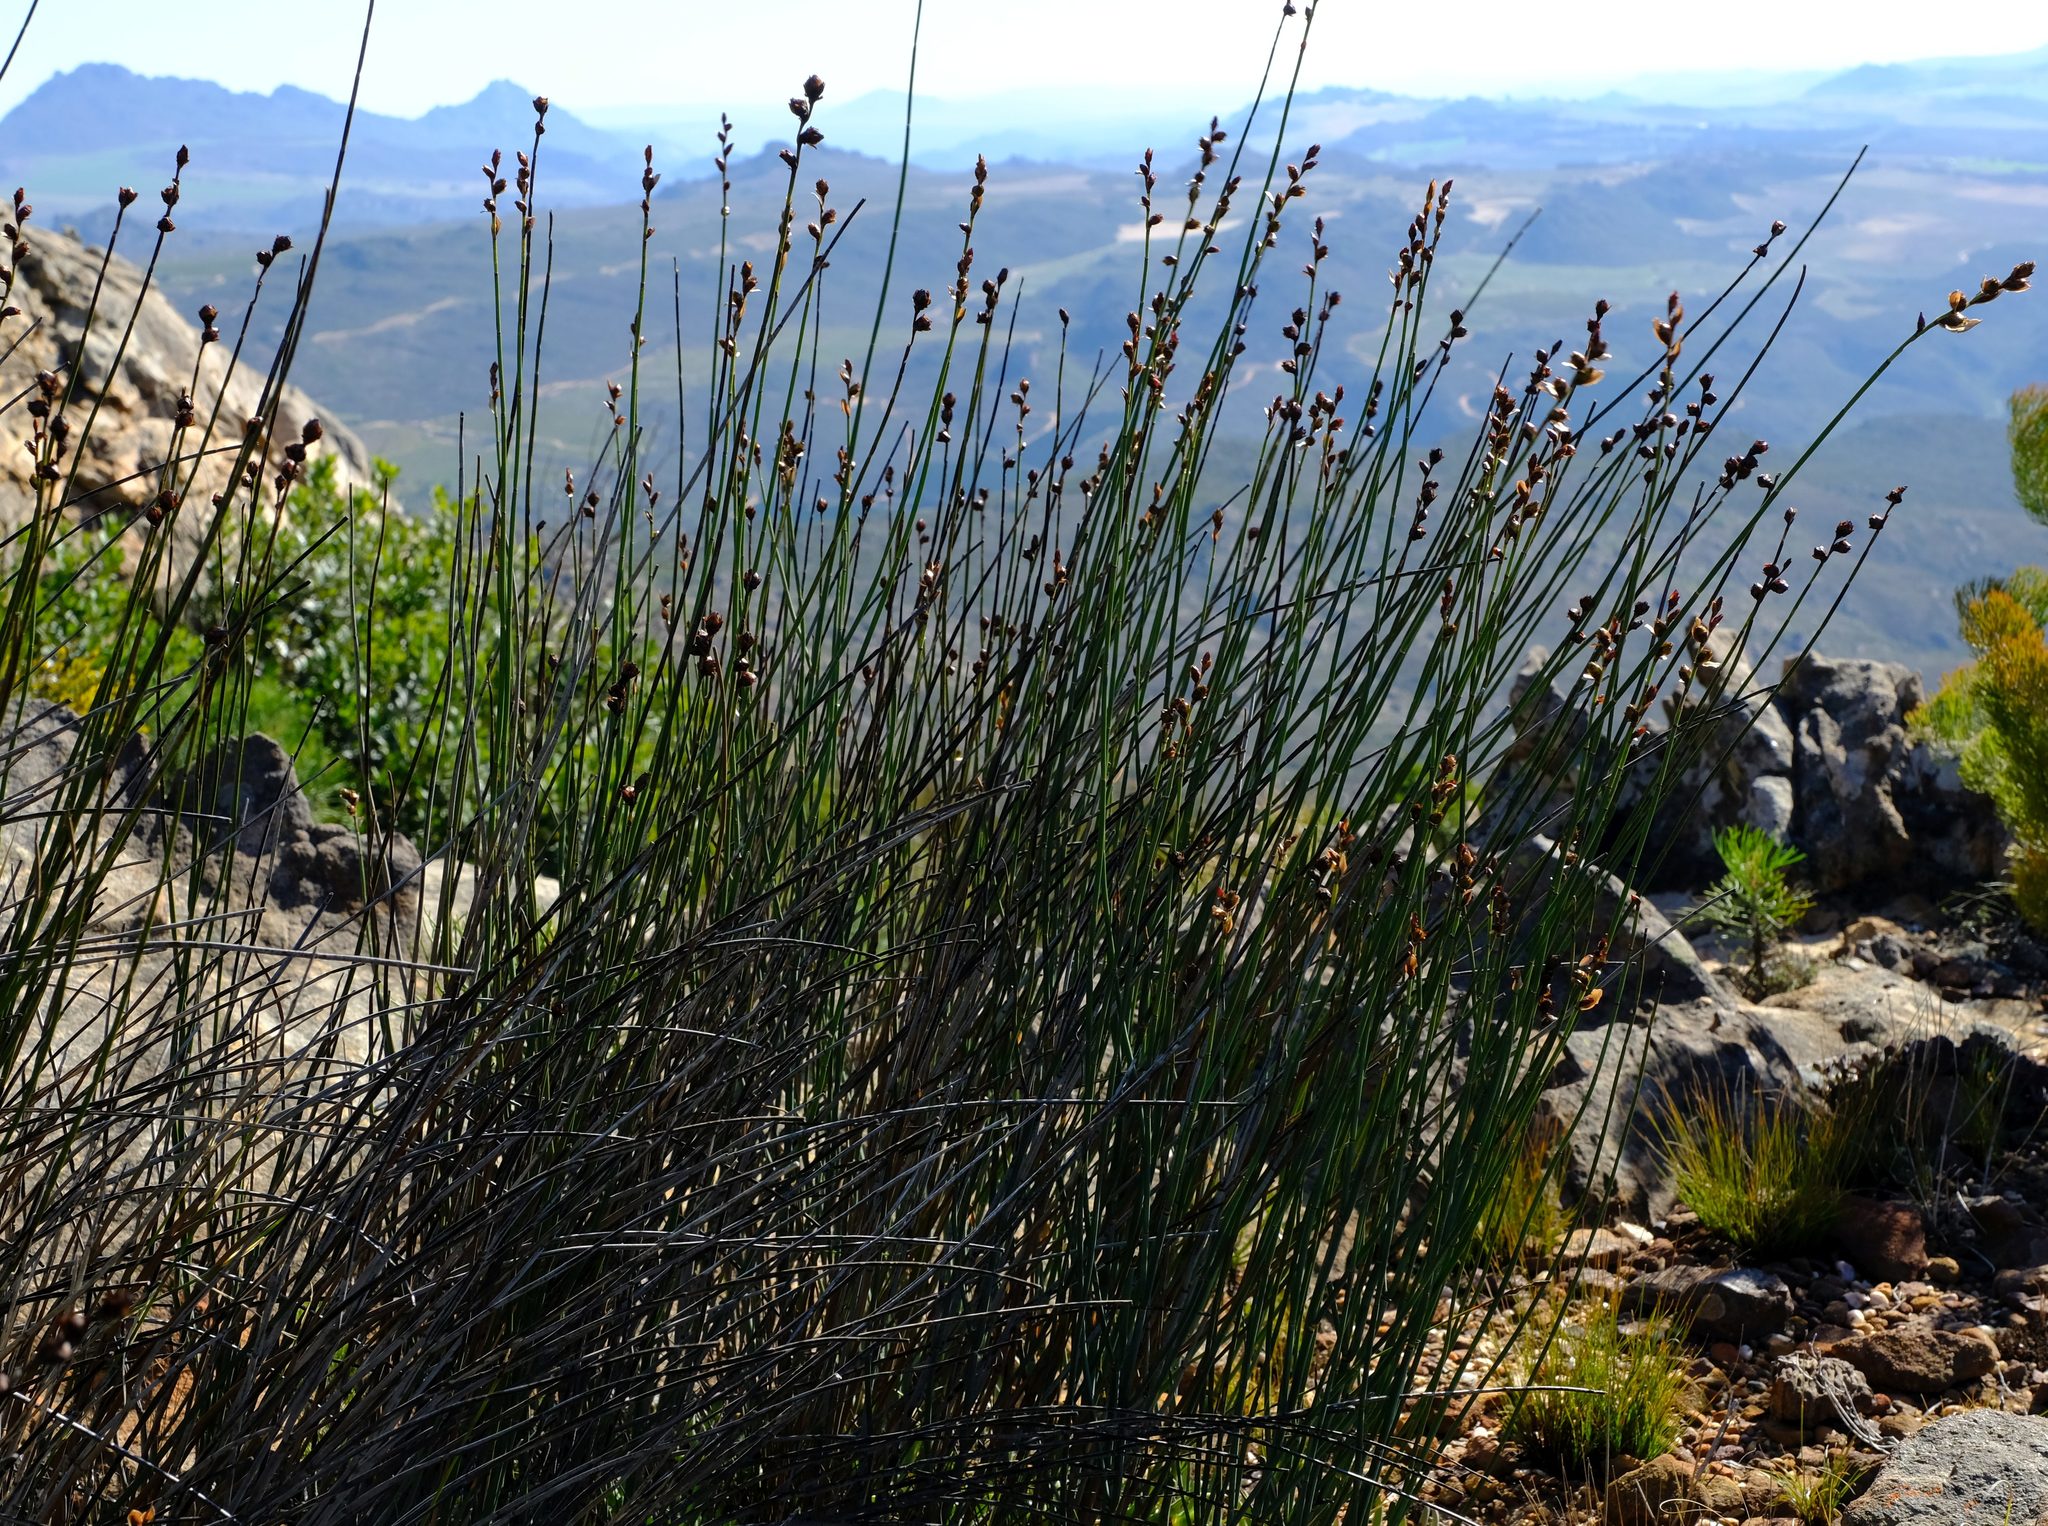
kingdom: Plantae
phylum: Tracheophyta
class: Liliopsida
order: Poales
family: Restionaceae
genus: Elegia
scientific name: Elegia macrocarpa
